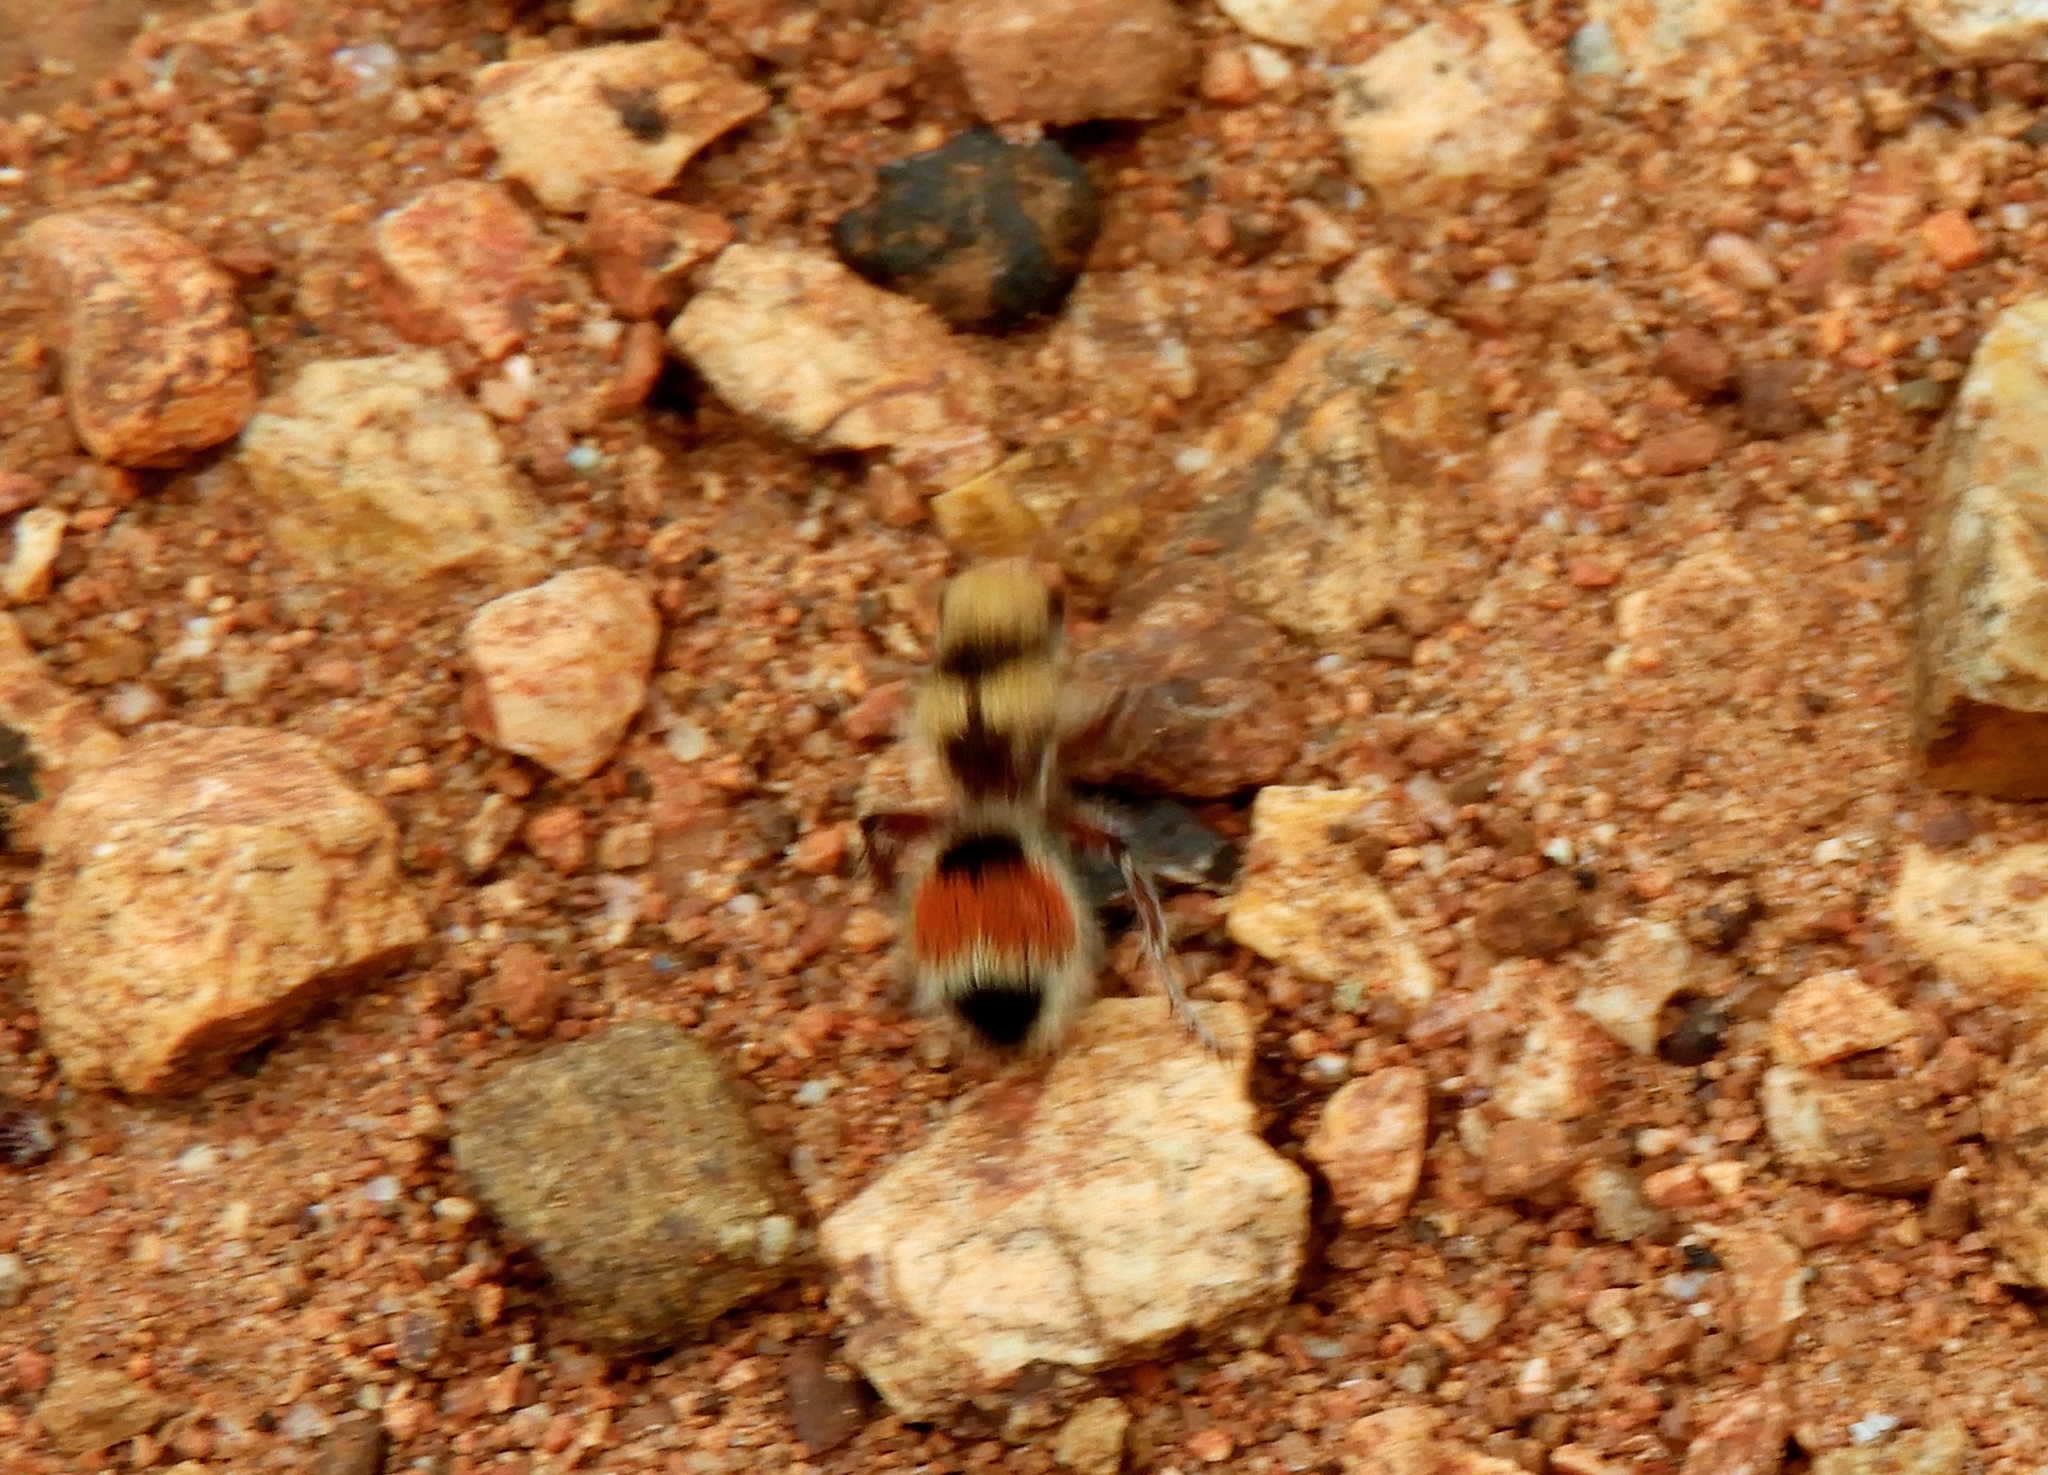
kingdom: Animalia
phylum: Arthropoda
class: Insecta
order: Hymenoptera
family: Mutillidae
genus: Dasymutilla
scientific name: Dasymutilla foxi
